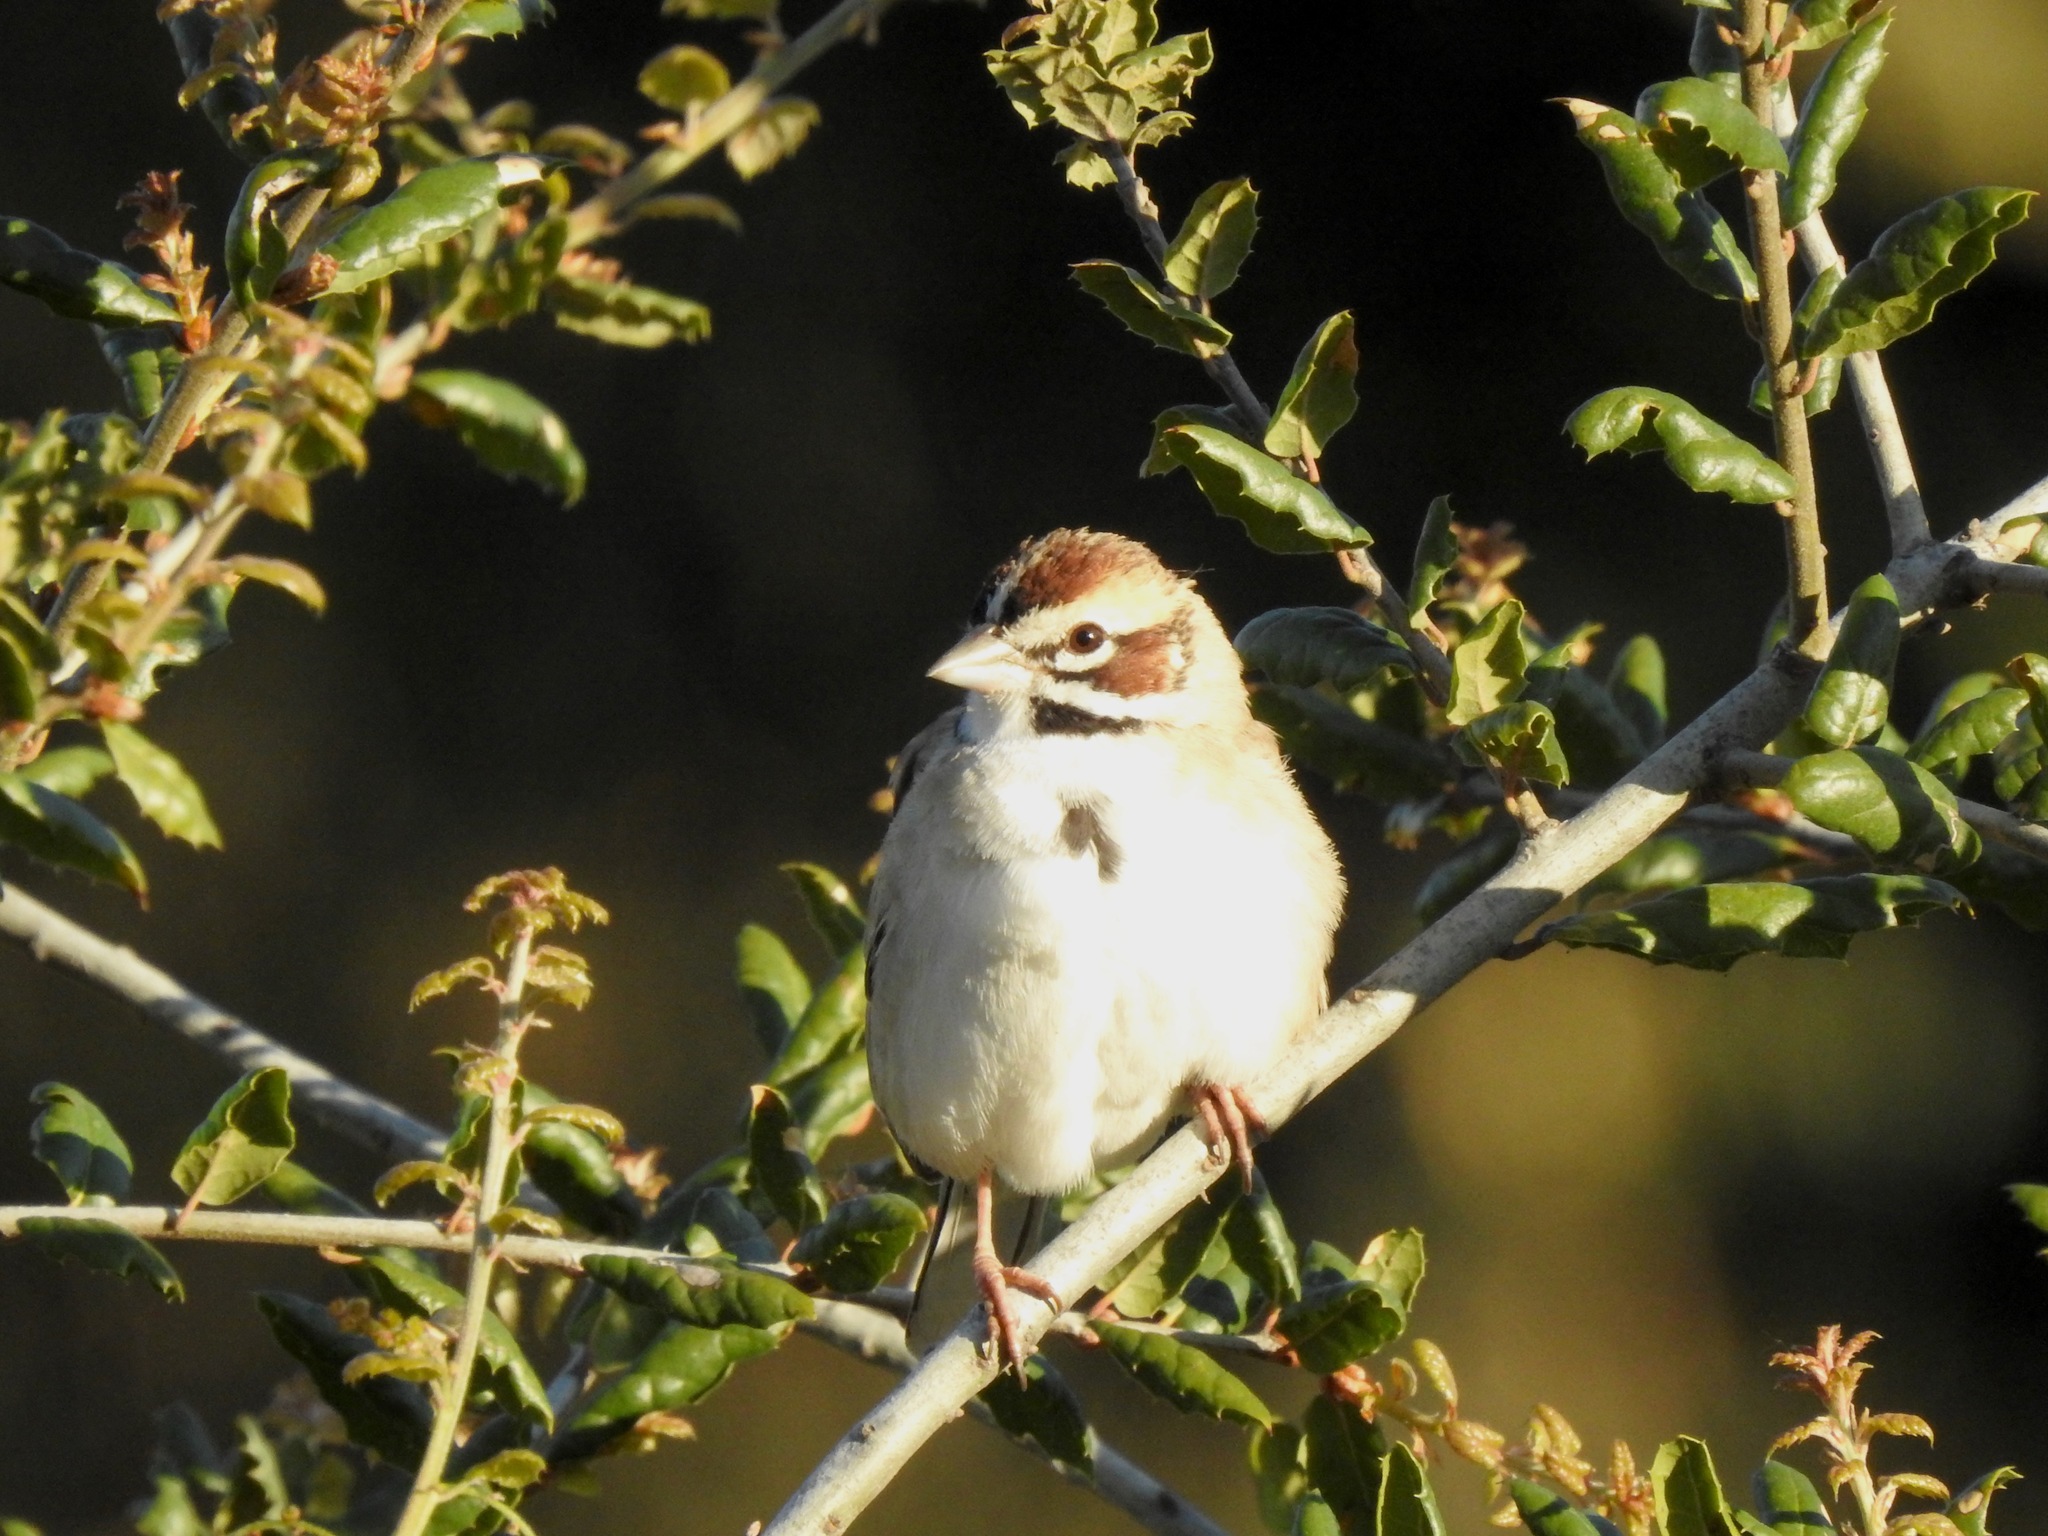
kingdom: Animalia
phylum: Chordata
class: Aves
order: Passeriformes
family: Passerellidae
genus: Chondestes
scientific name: Chondestes grammacus
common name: Lark sparrow
